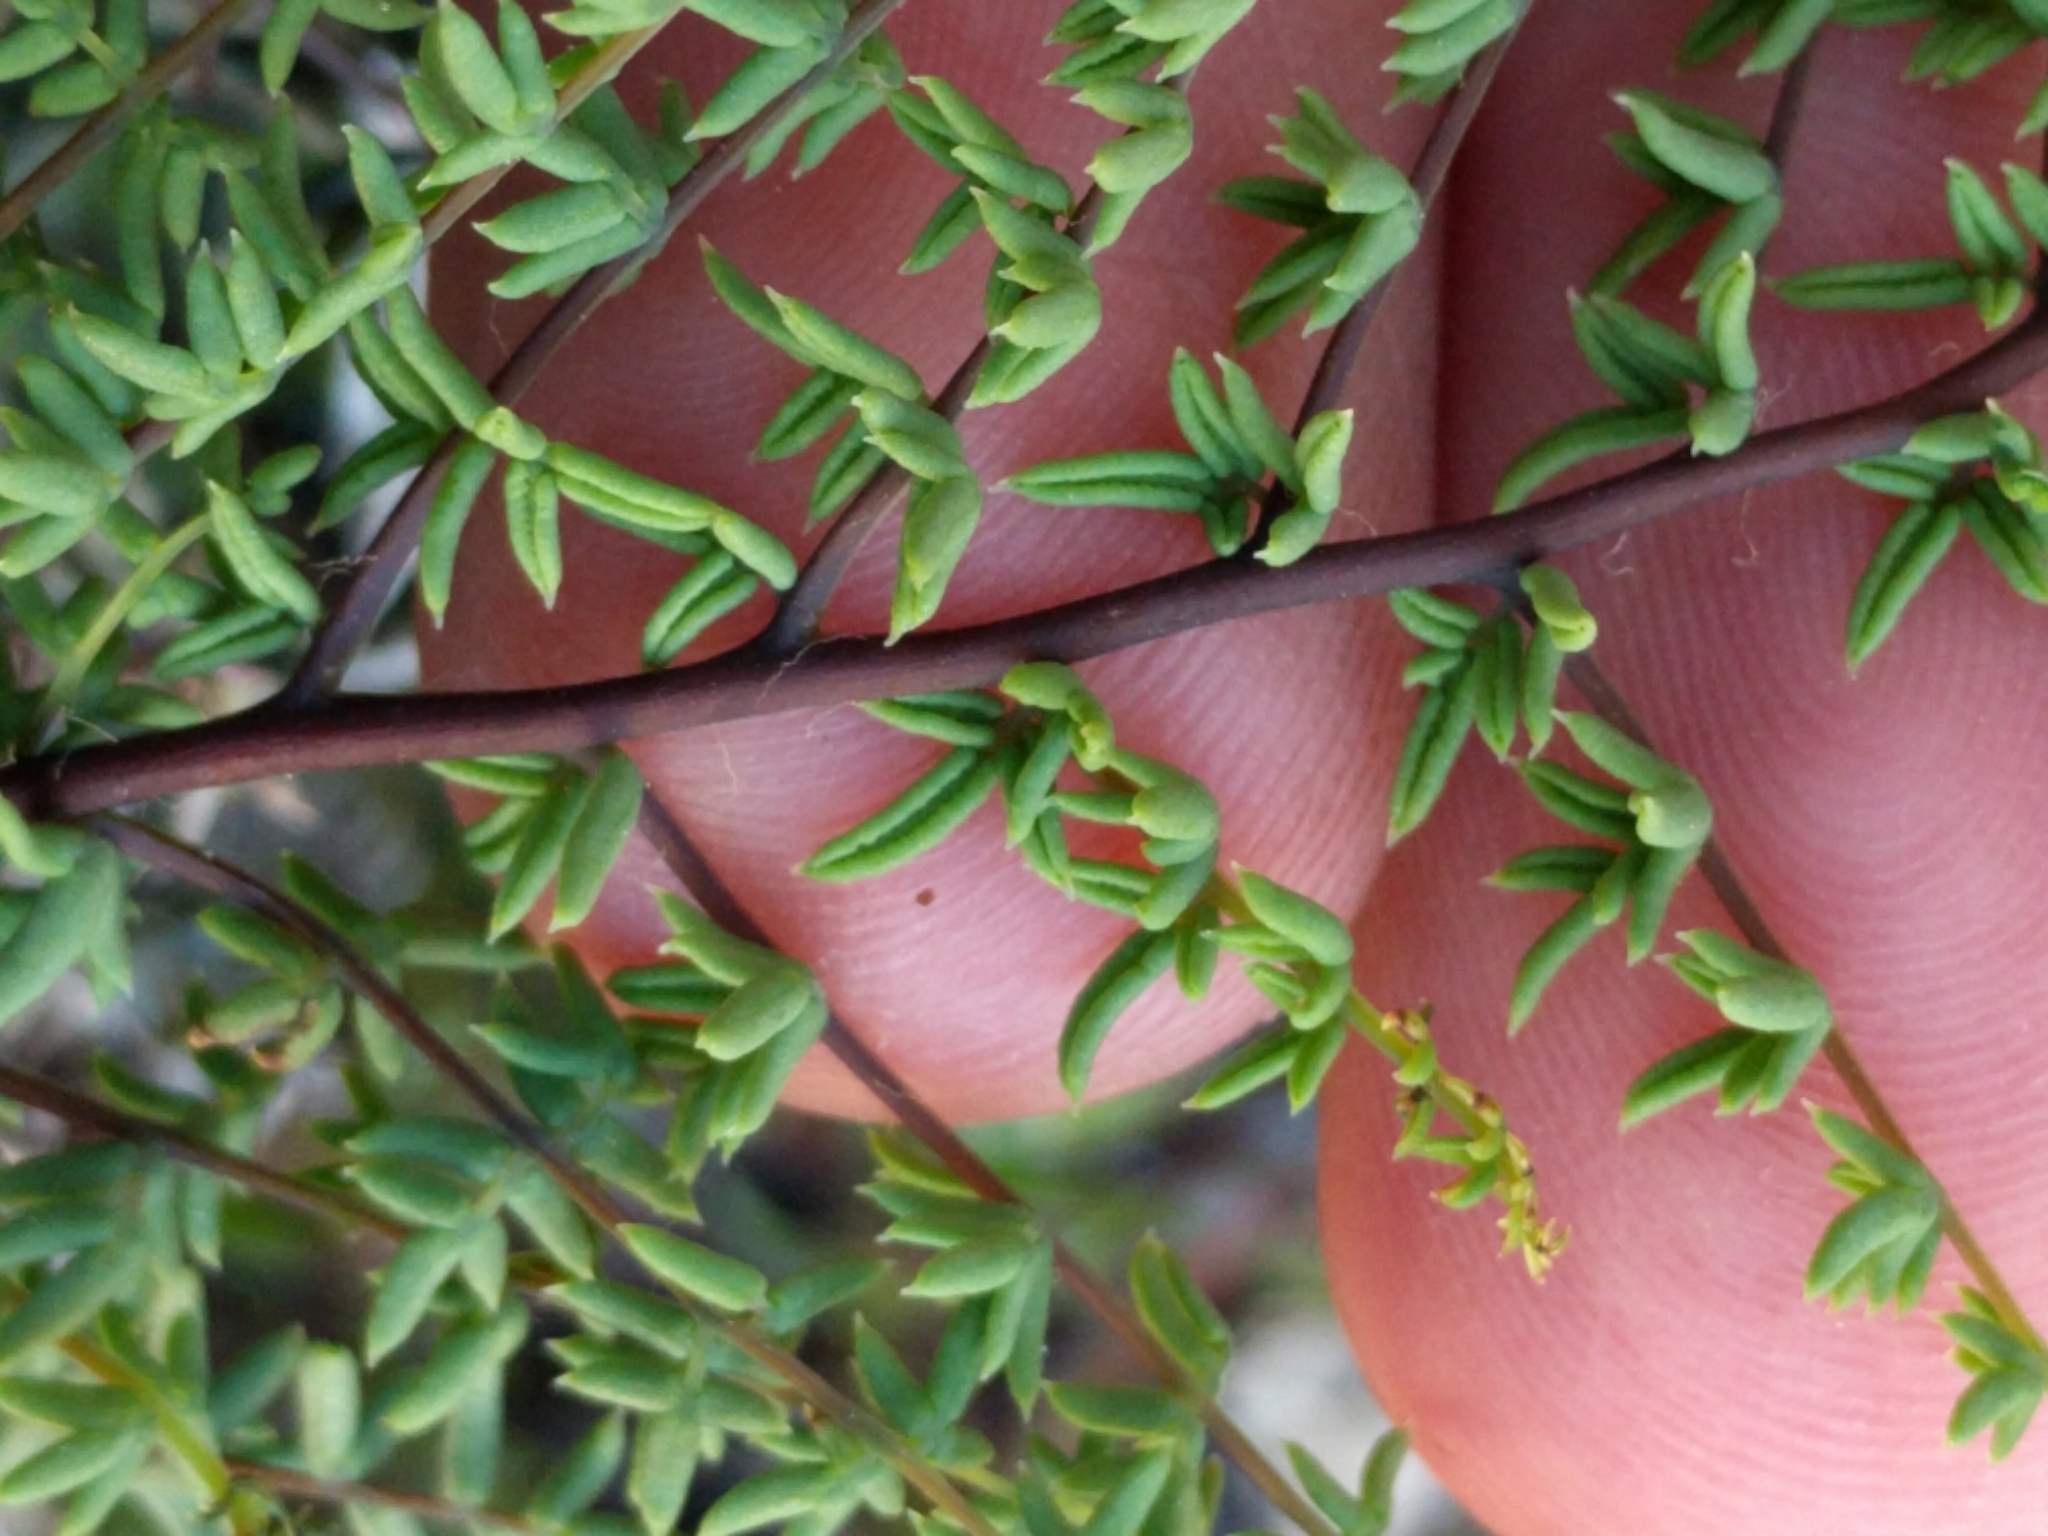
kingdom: Plantae
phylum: Tracheophyta
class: Polypodiopsida
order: Polypodiales
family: Pteridaceae
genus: Pellaea
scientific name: Pellaea mucronata
